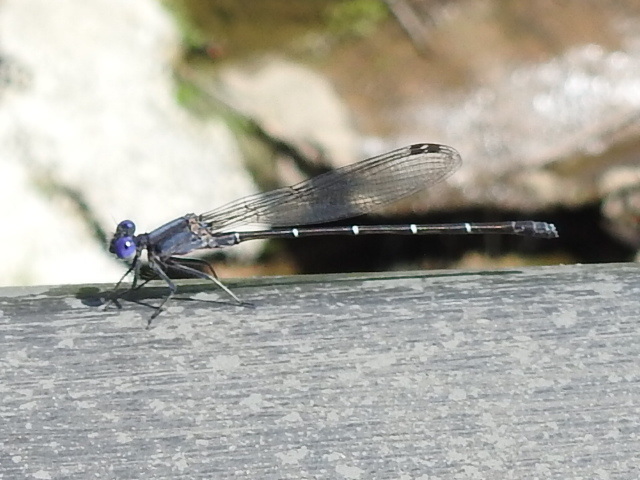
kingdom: Animalia
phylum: Arthropoda
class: Insecta
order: Odonata
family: Coenagrionidae
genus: Argia
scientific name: Argia translata
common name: Dusky dancer
